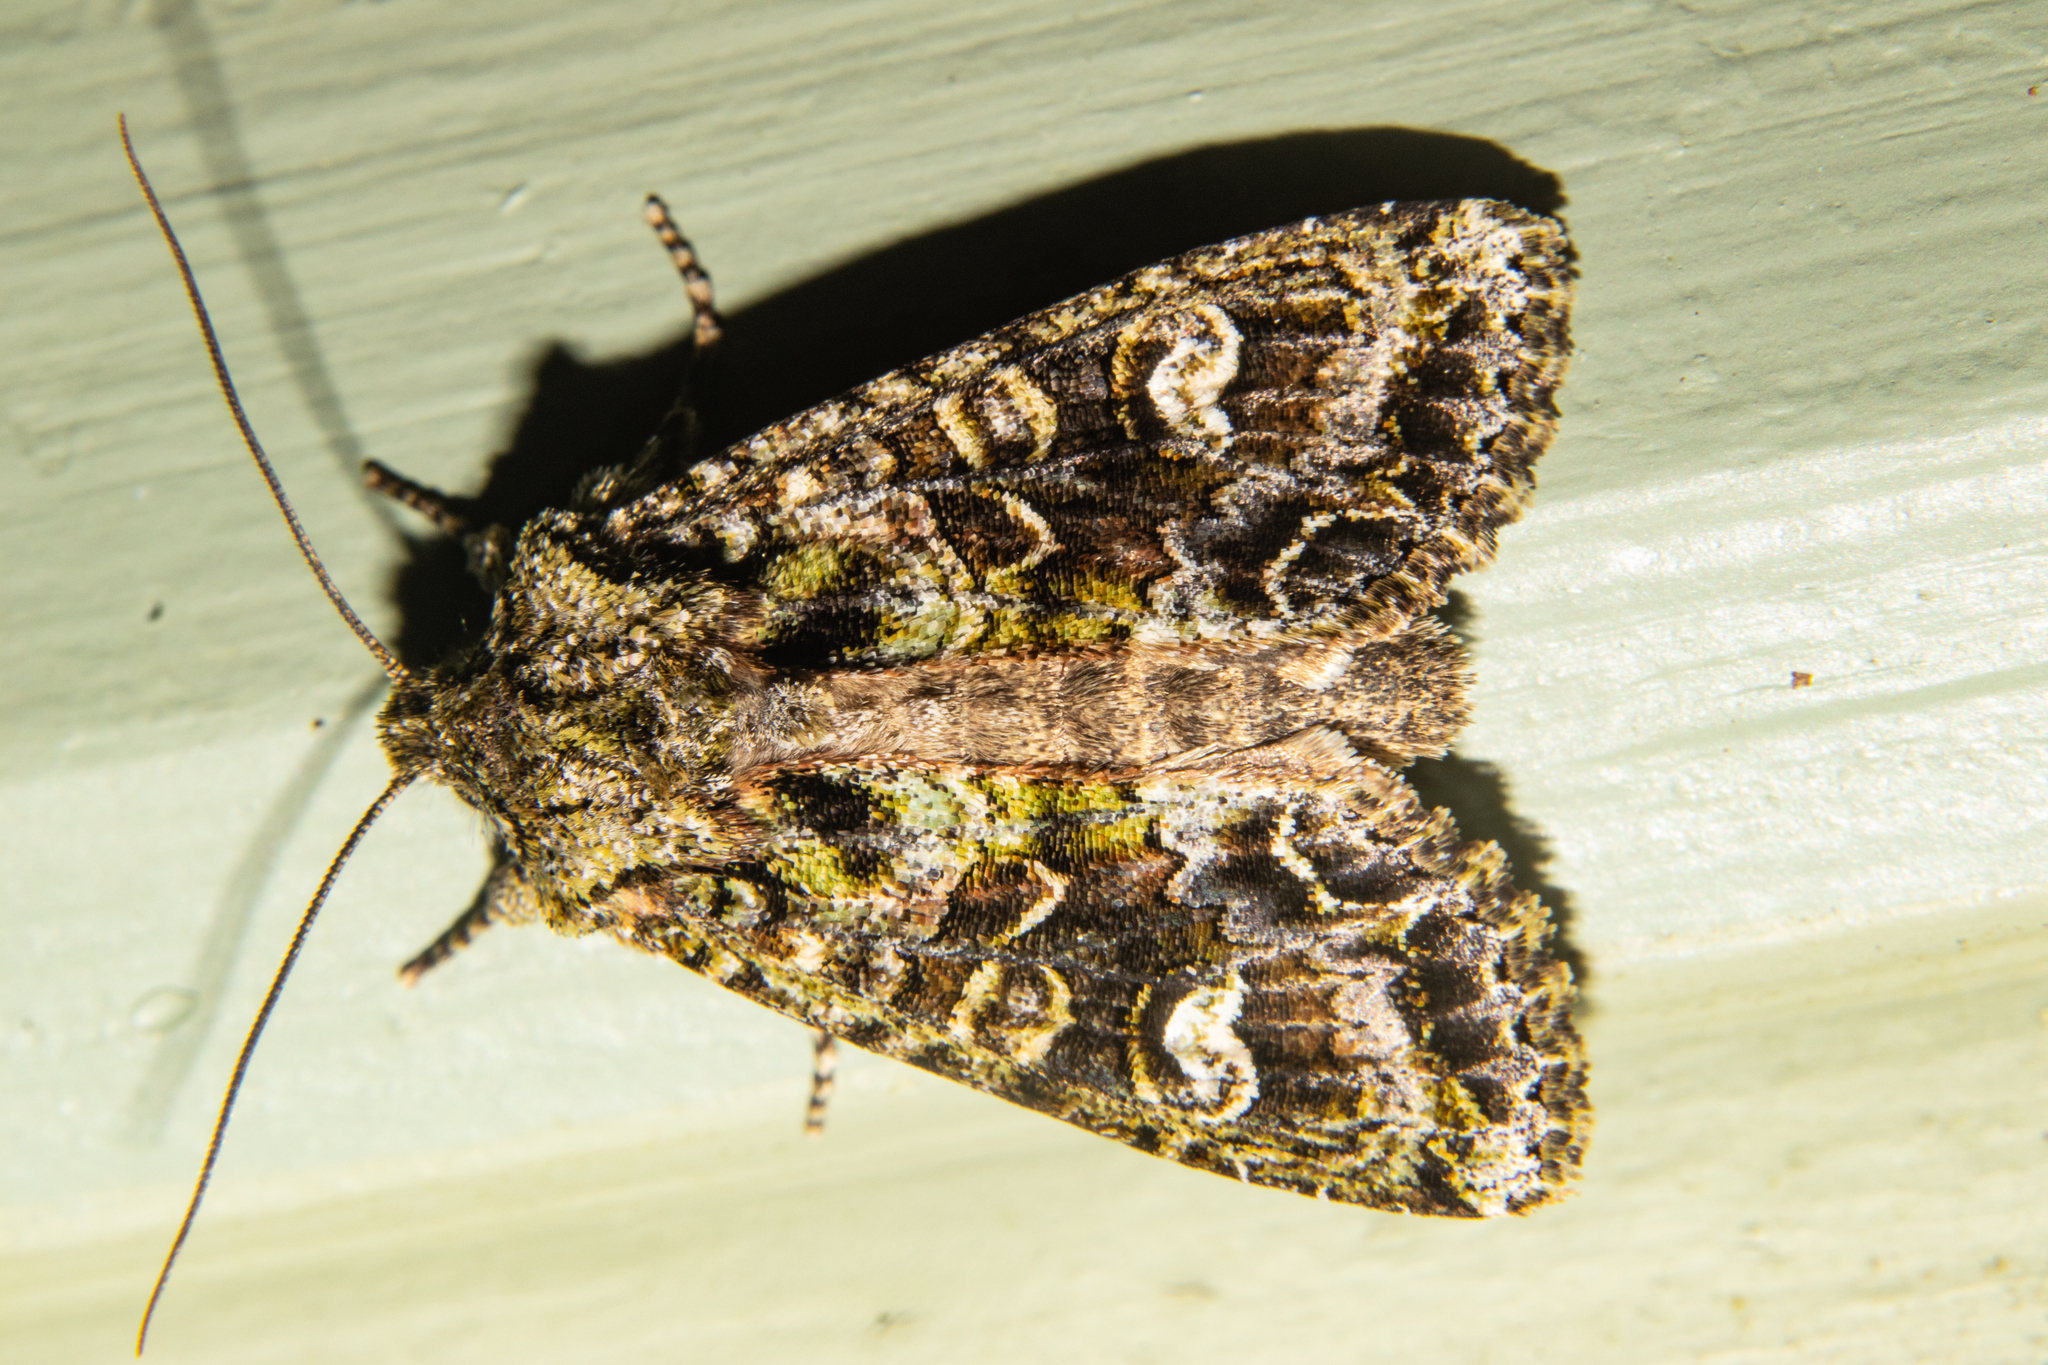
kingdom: Animalia
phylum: Arthropoda
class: Insecta
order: Lepidoptera
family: Noctuidae
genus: Ichneutica
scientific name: Ichneutica
